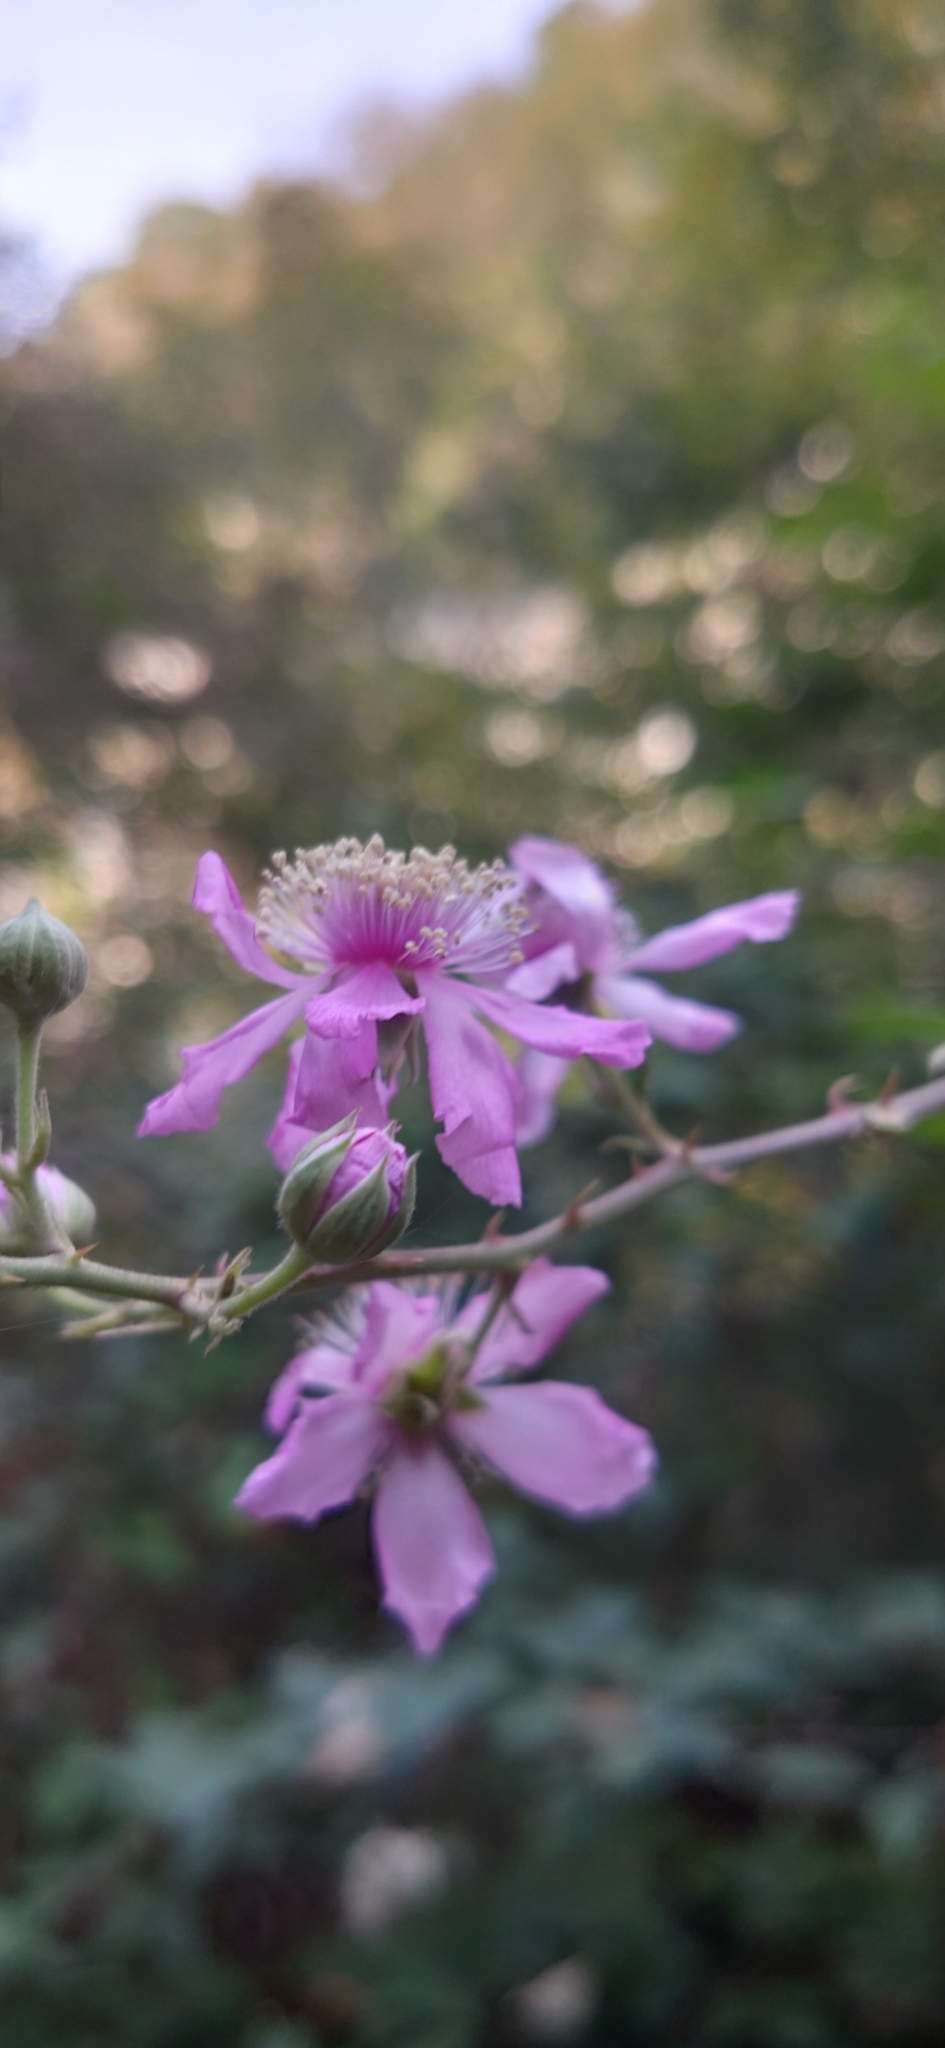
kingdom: Plantae
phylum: Tracheophyta
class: Magnoliopsida
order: Rosales
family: Rosaceae
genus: Rubus
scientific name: Rubus sanctus
